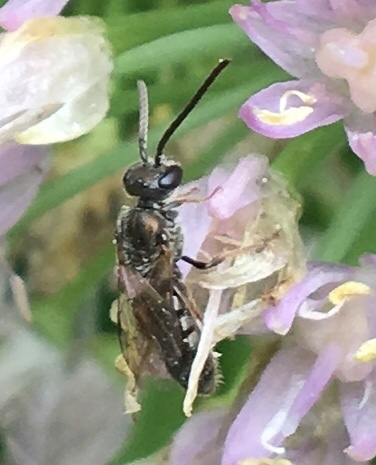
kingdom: Animalia
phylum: Arthropoda
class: Insecta
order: Hymenoptera
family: Halictidae
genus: Dialictus
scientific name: Dialictus
